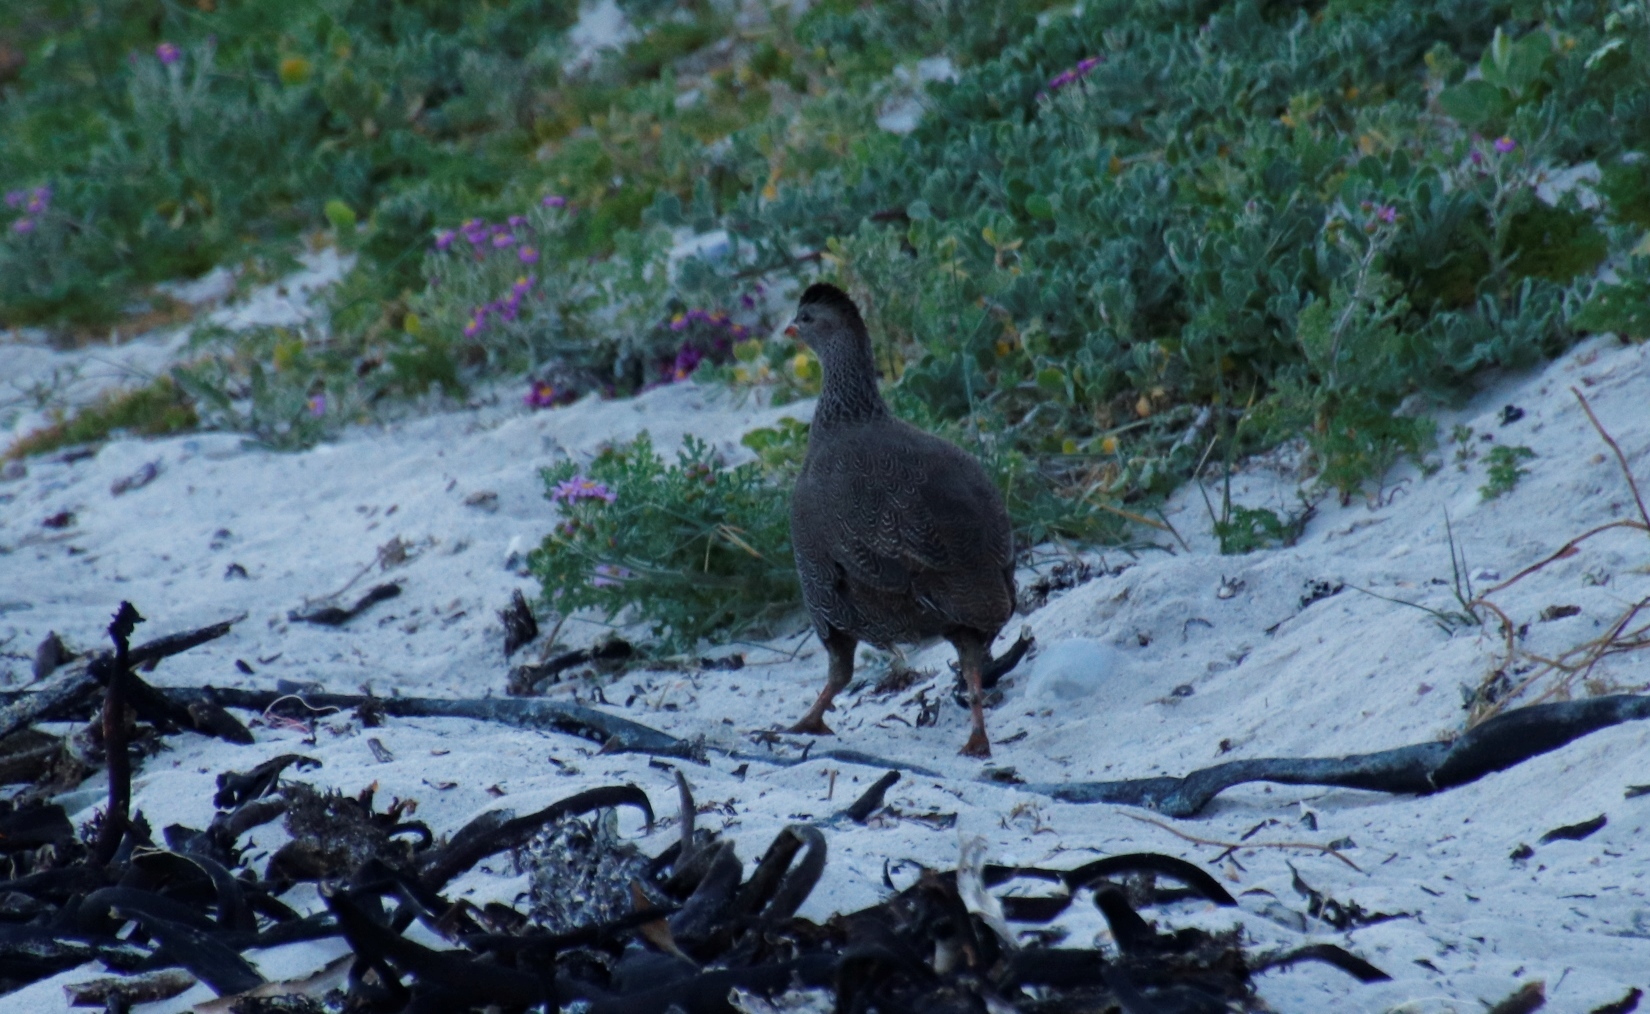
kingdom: Animalia
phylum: Chordata
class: Aves
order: Galliformes
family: Phasianidae
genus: Pternistis
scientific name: Pternistis capensis
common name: Cape spurfowl
